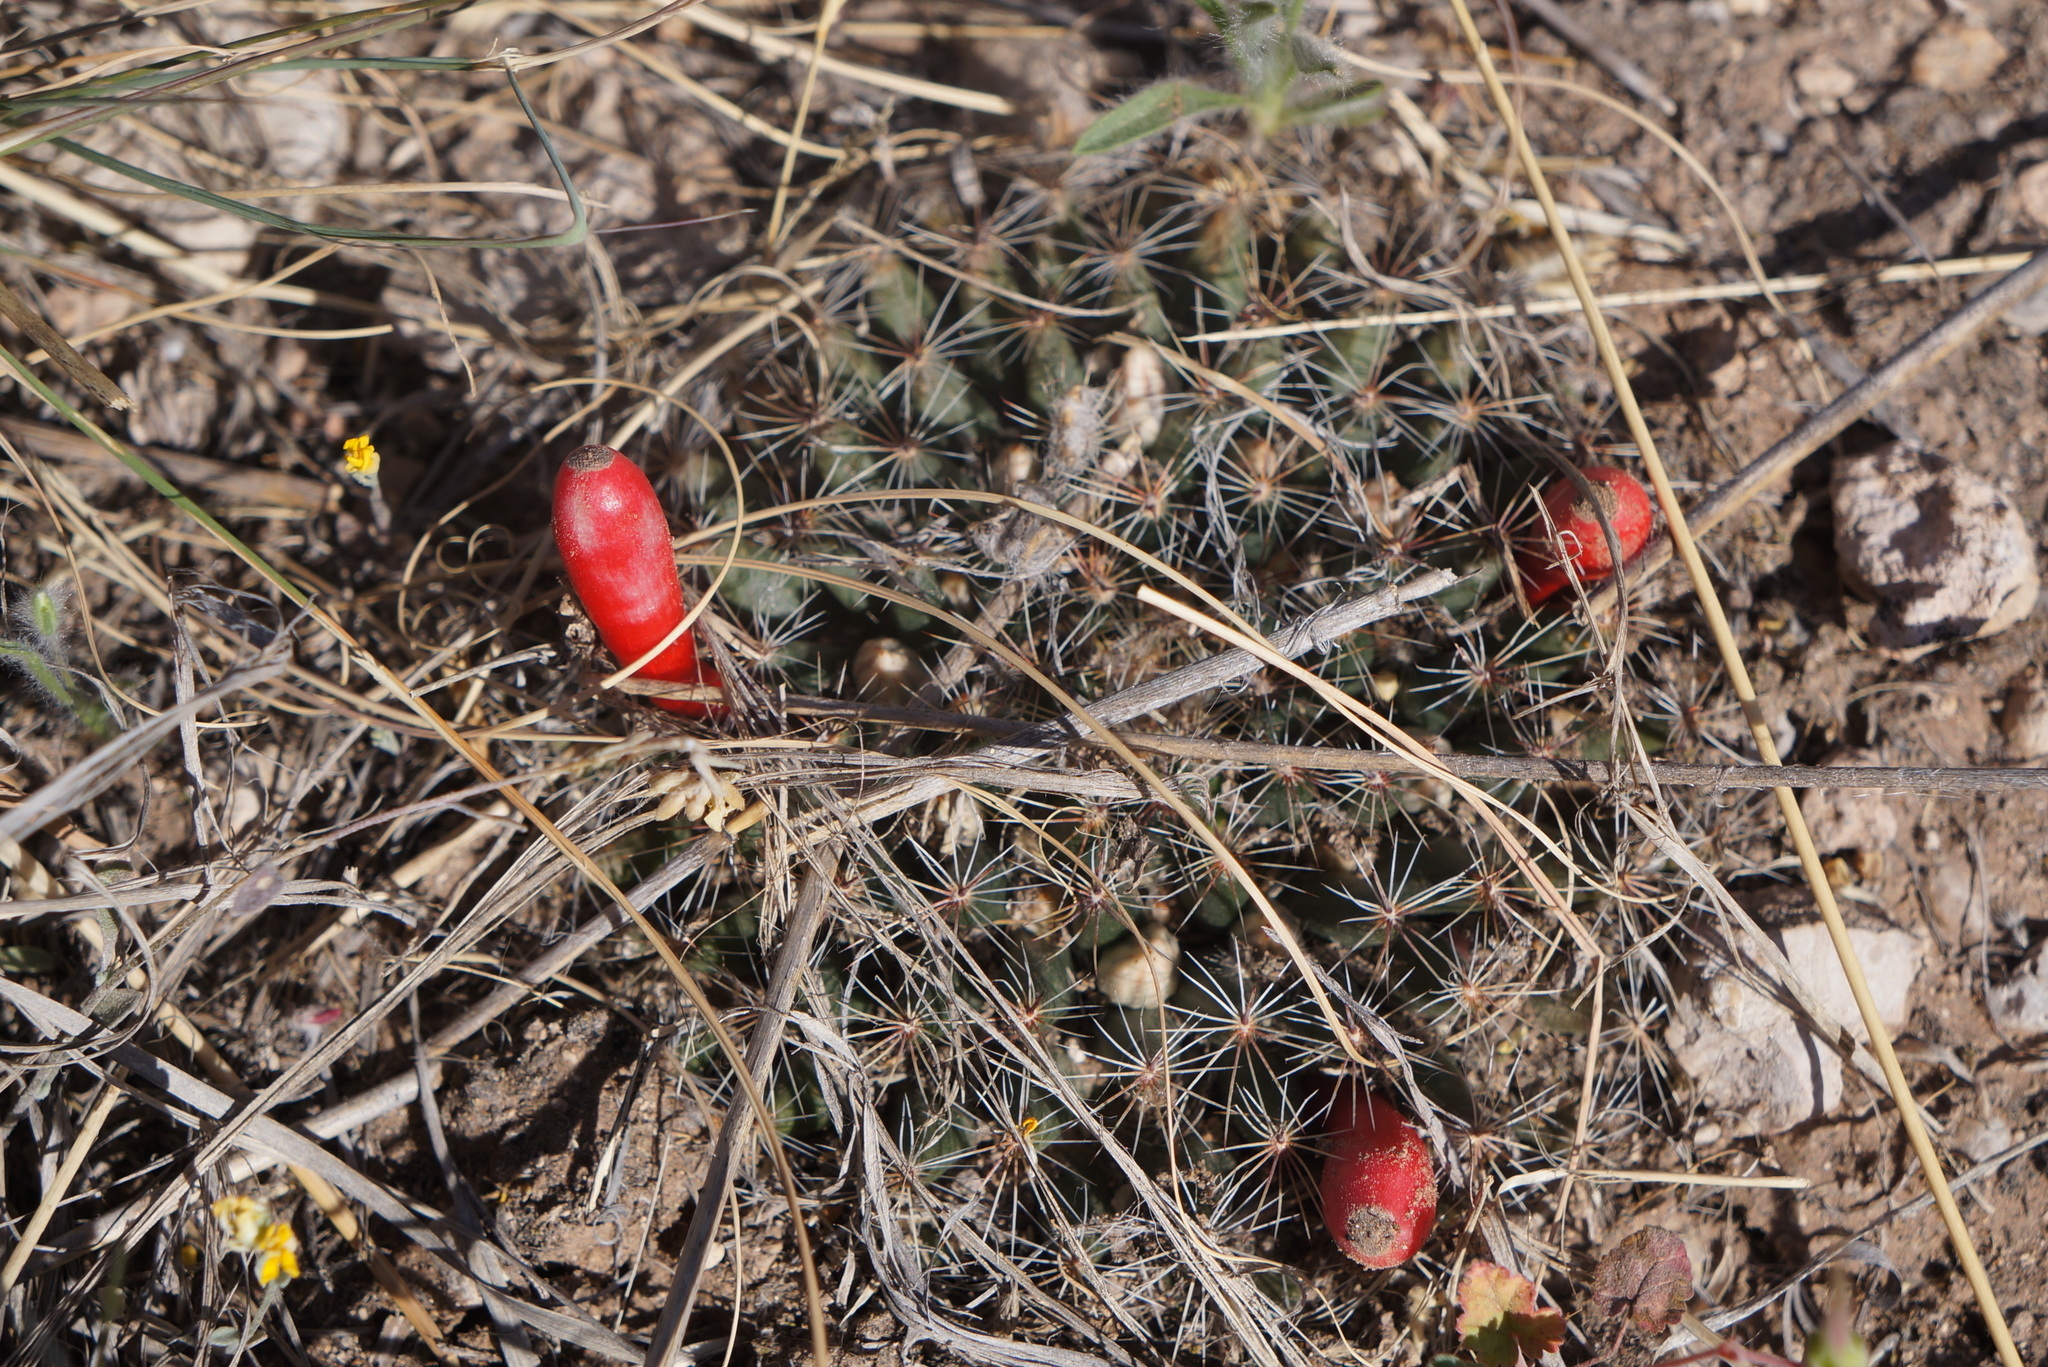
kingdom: Plantae
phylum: Tracheophyta
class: Magnoliopsida
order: Caryophyllales
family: Cactaceae
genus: Mammillaria
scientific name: Mammillaria heyderi
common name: Little nipple cactus
